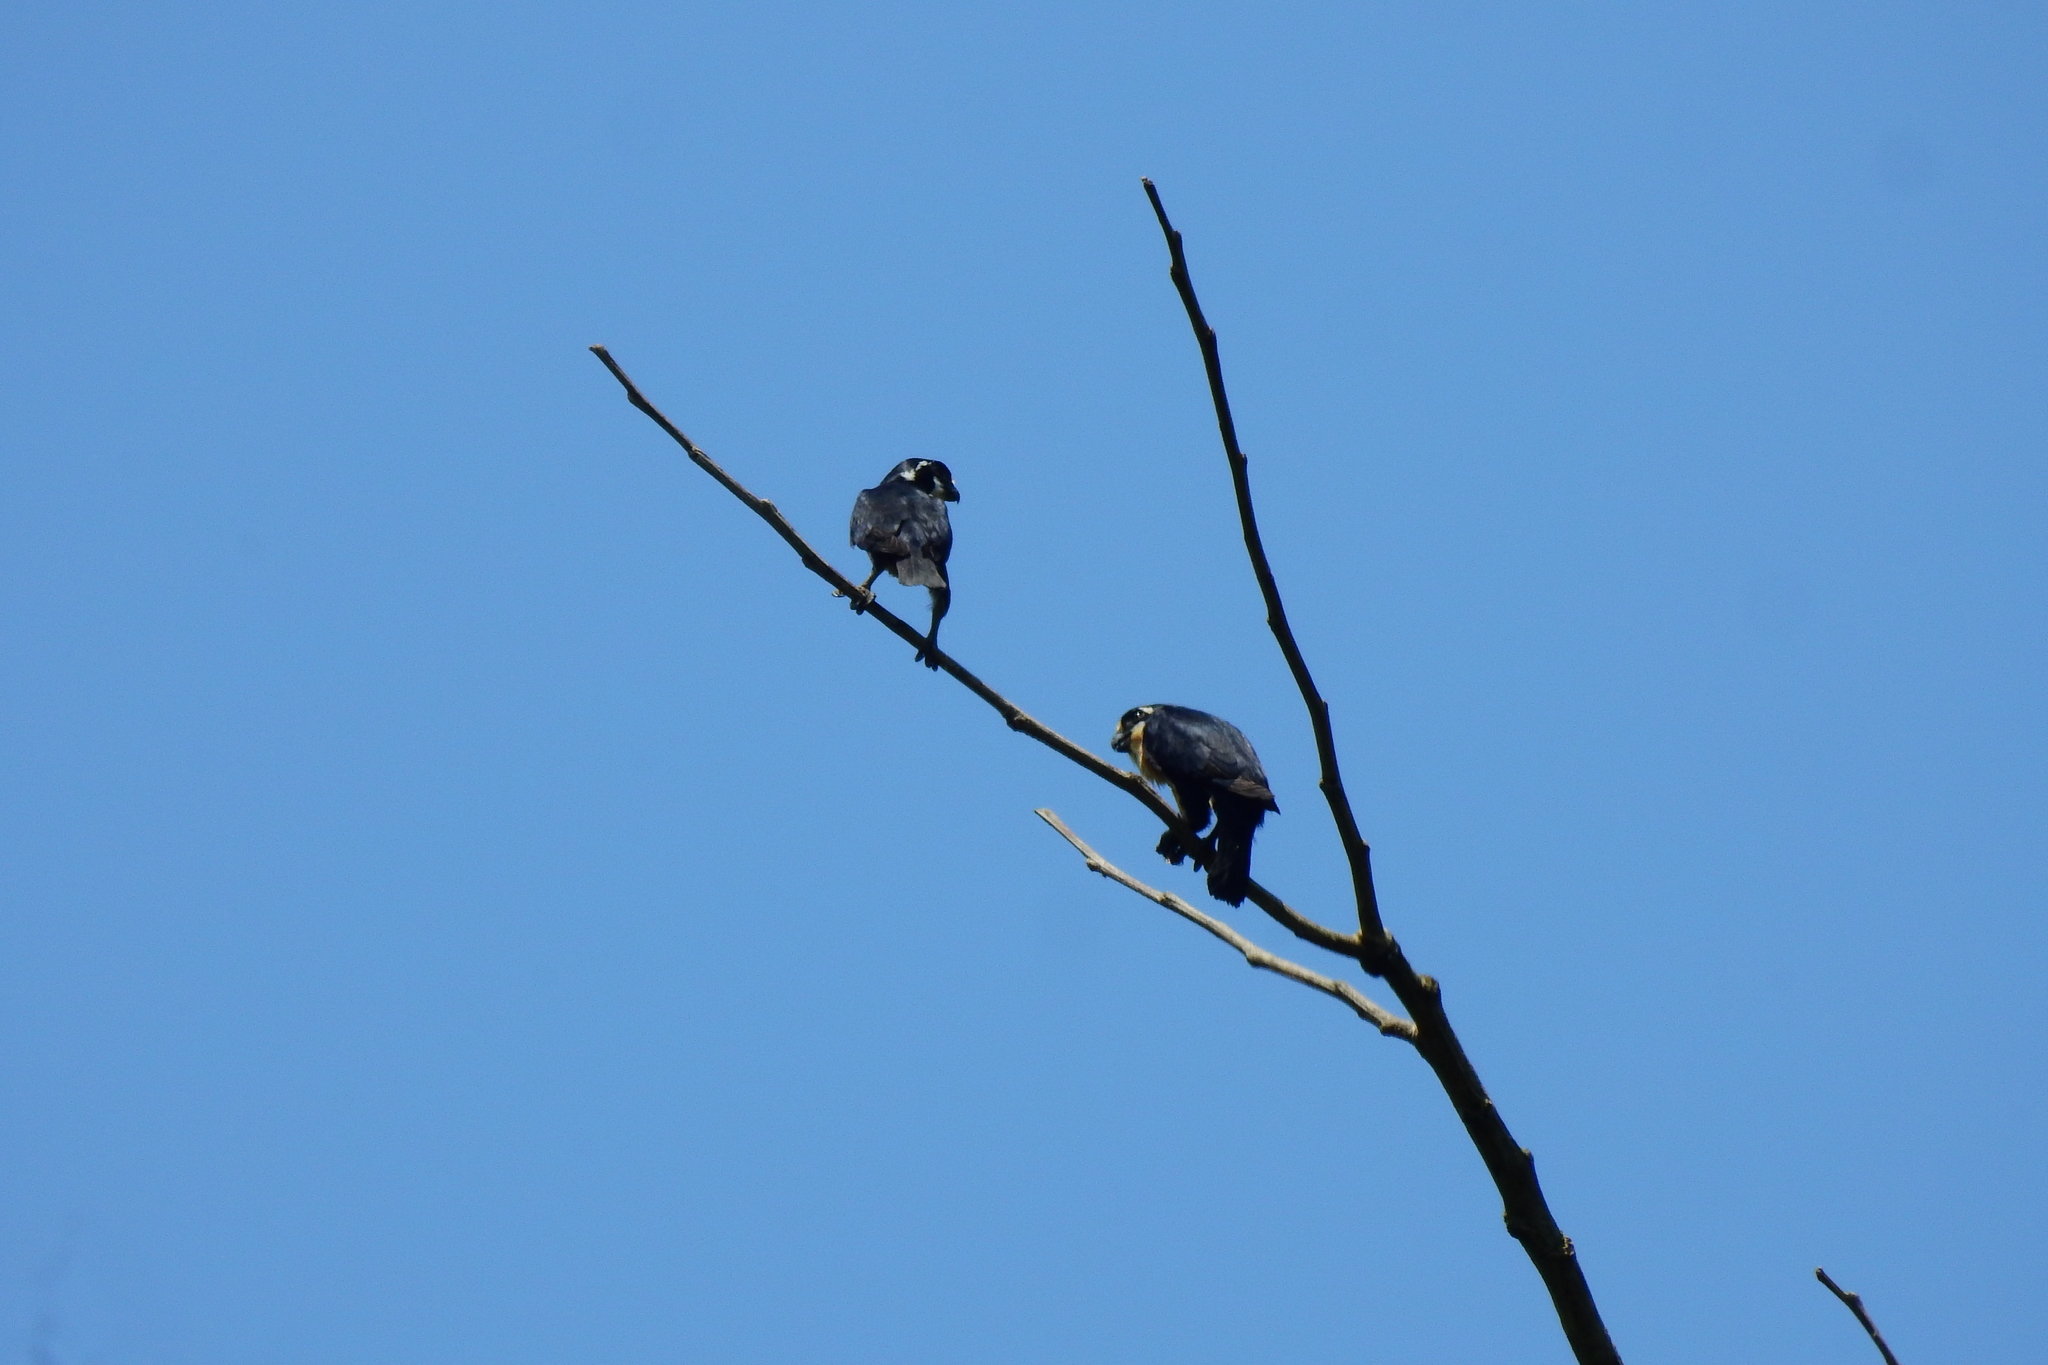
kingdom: Animalia
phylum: Chordata
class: Aves
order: Falconiformes
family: Falconidae
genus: Microhierax
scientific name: Microhierax fringillarius
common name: Black-thighed falconet
